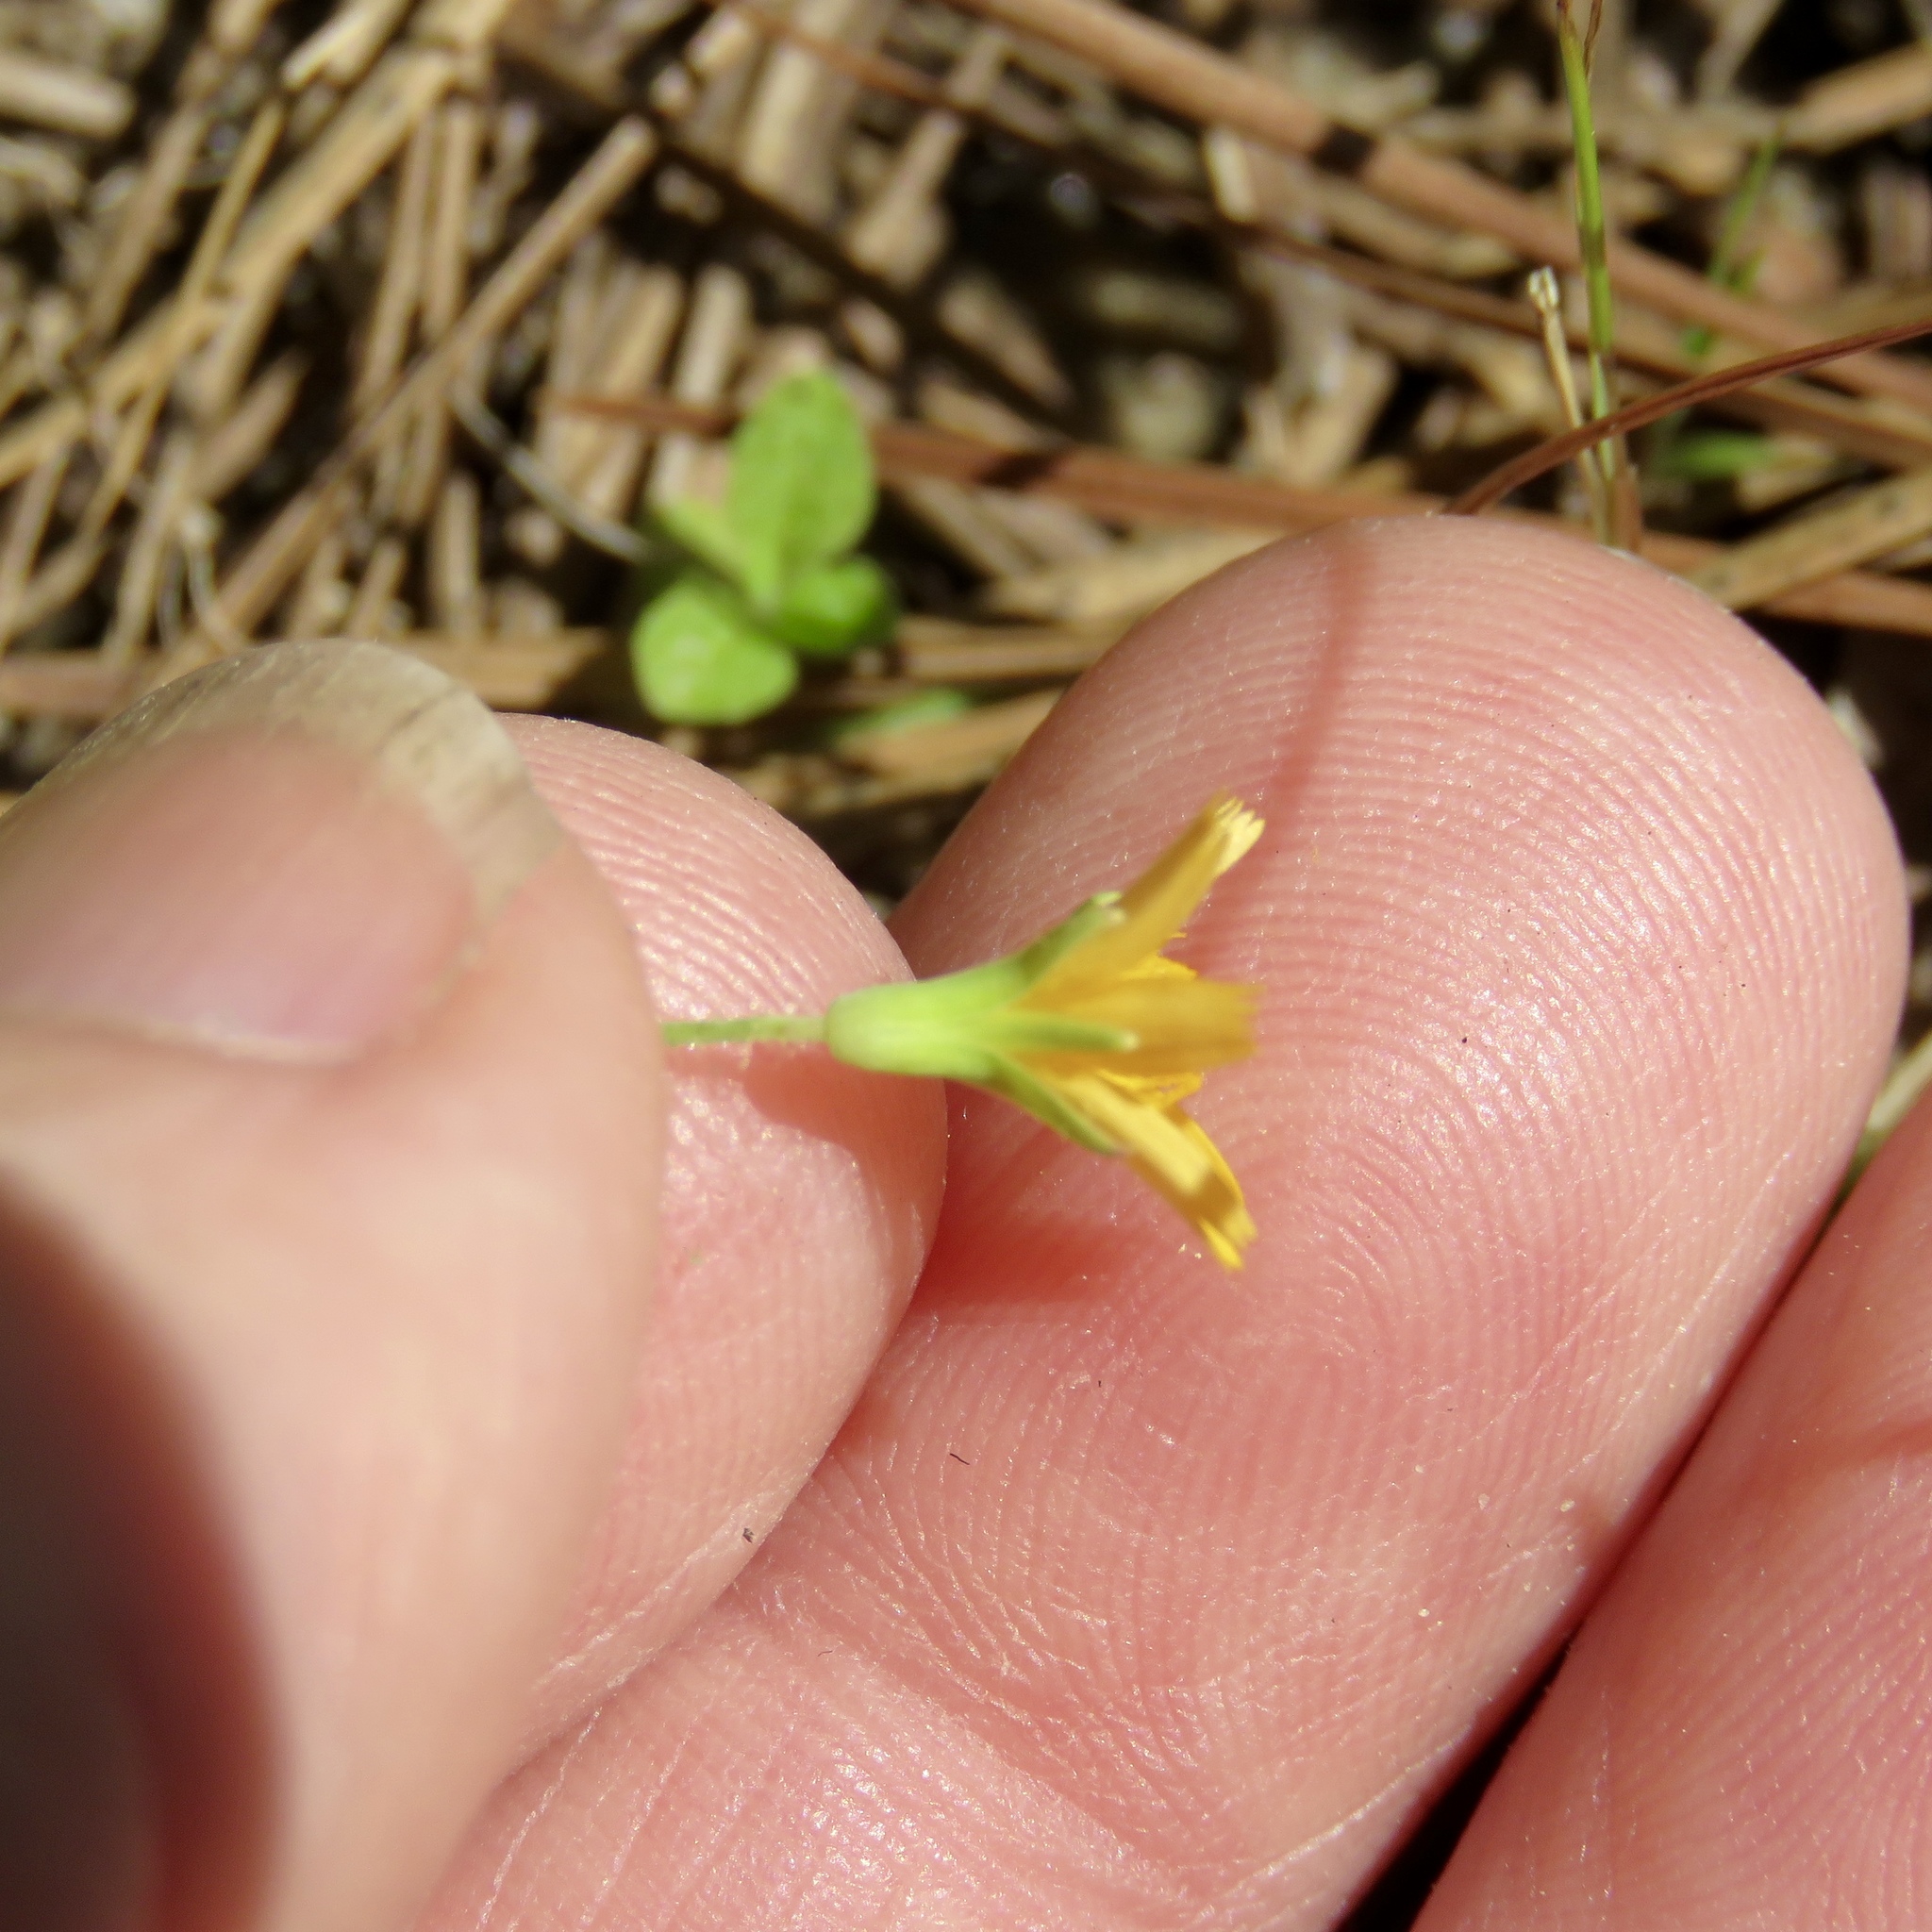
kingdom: Plantae
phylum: Tracheophyta
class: Magnoliopsida
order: Asterales
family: Asteraceae
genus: Krigia
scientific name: Krigia virginica
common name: Virginia dwarf-dandelion
